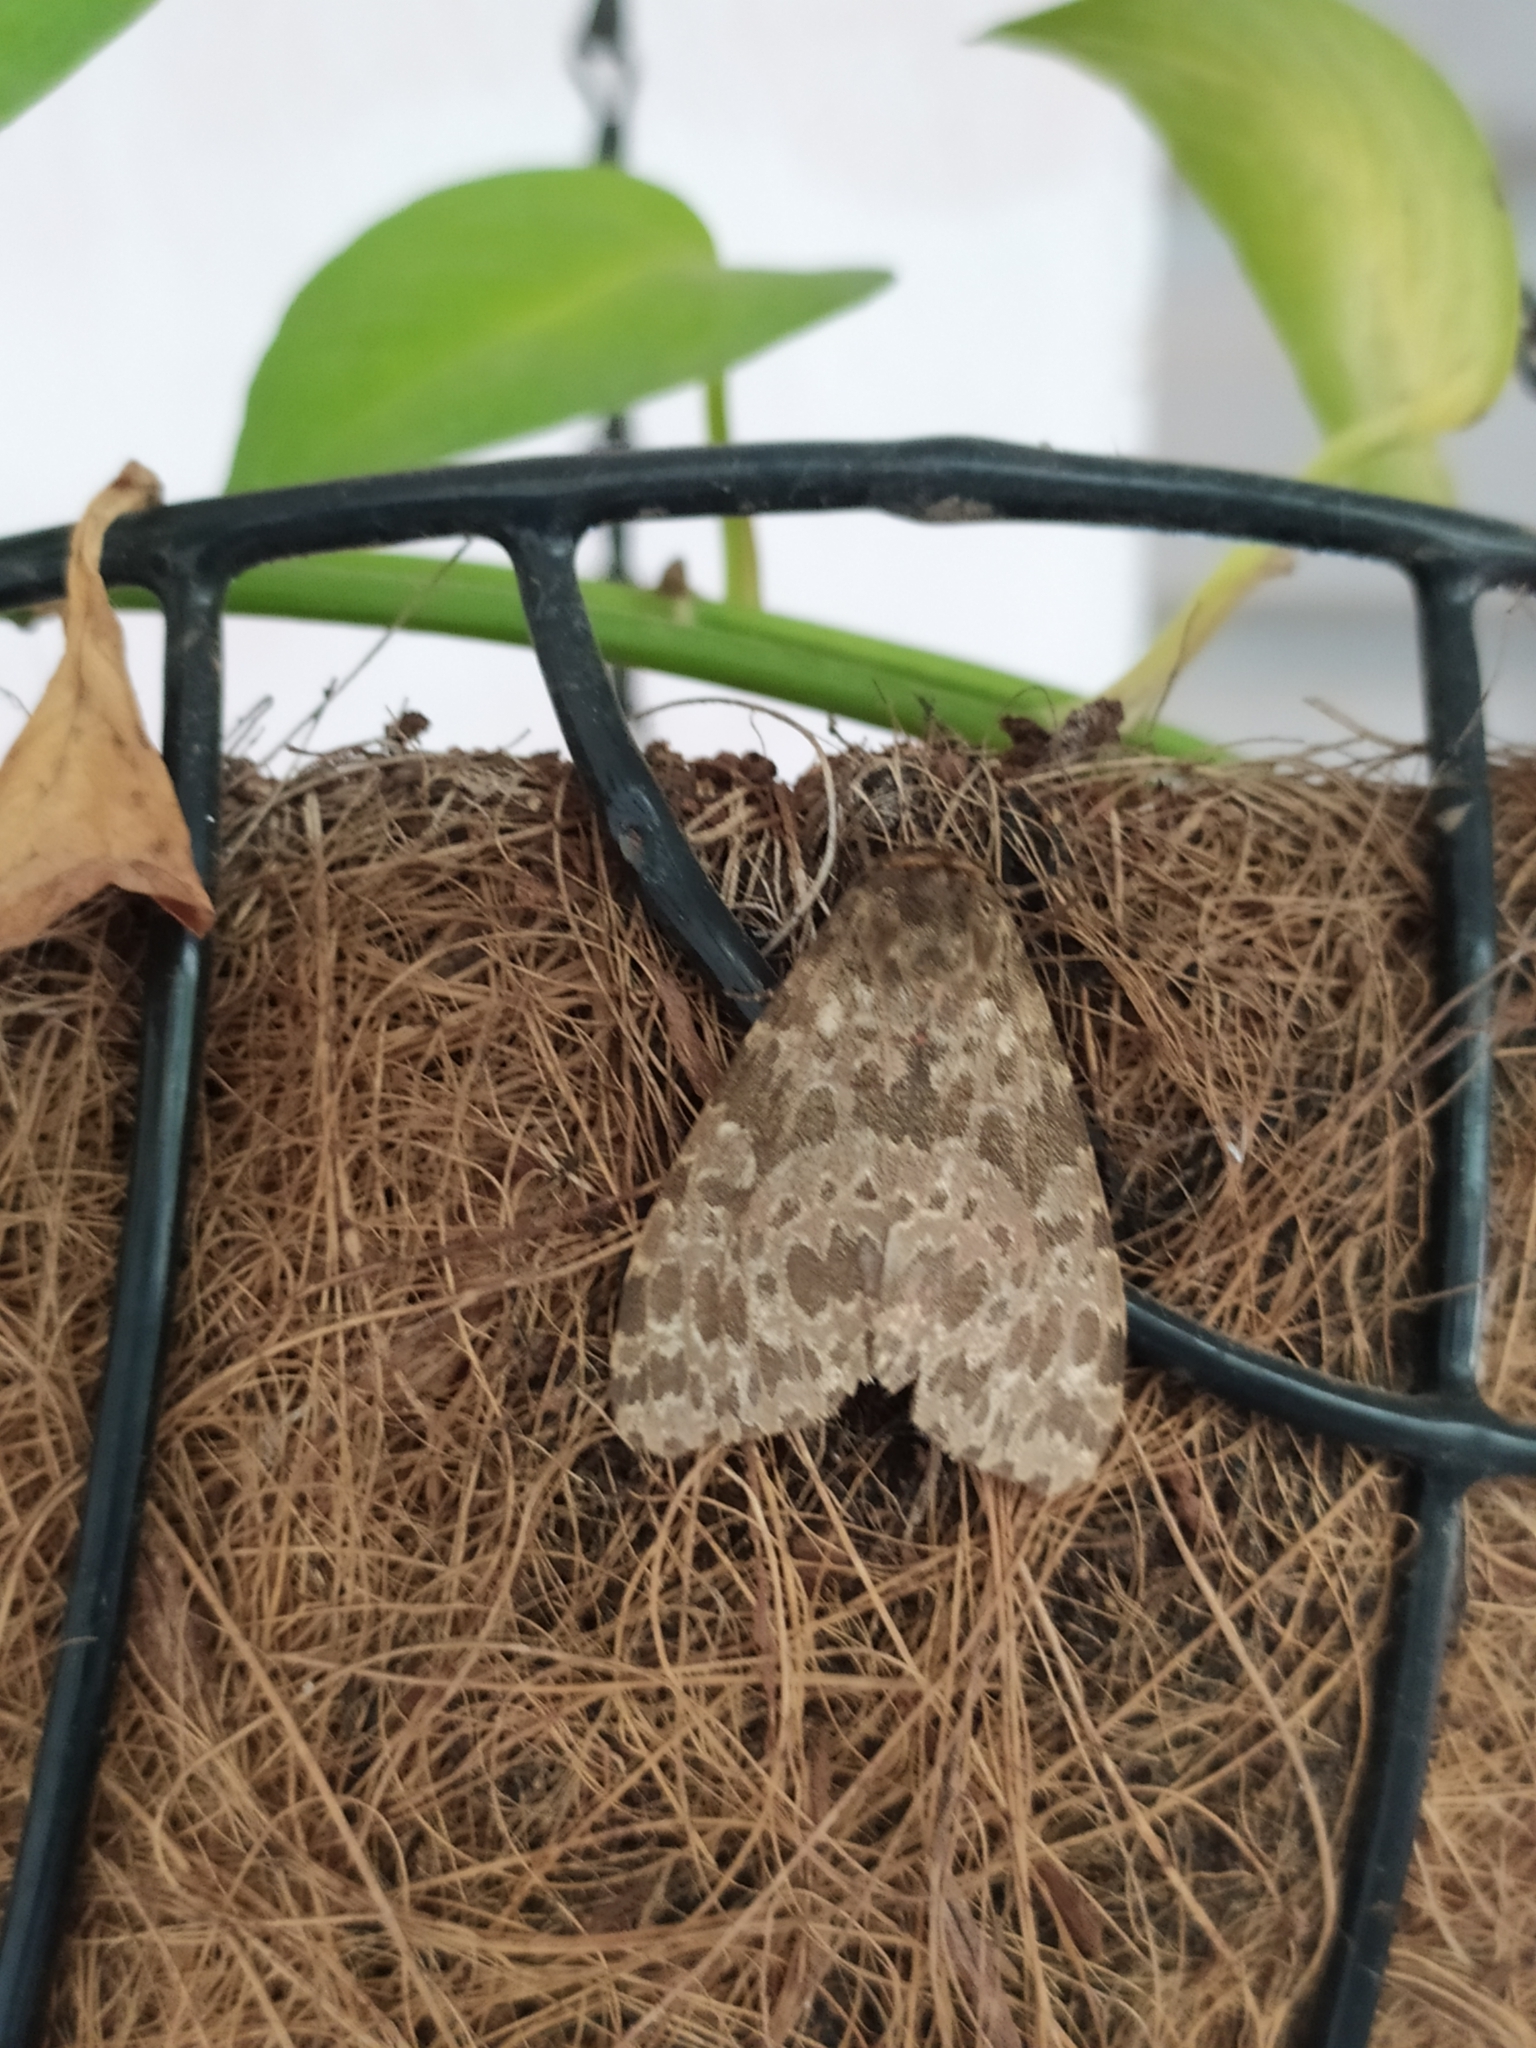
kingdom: Animalia
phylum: Arthropoda
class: Insecta
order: Lepidoptera
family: Erebidae
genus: Olepa
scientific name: Olepa ocellifera
